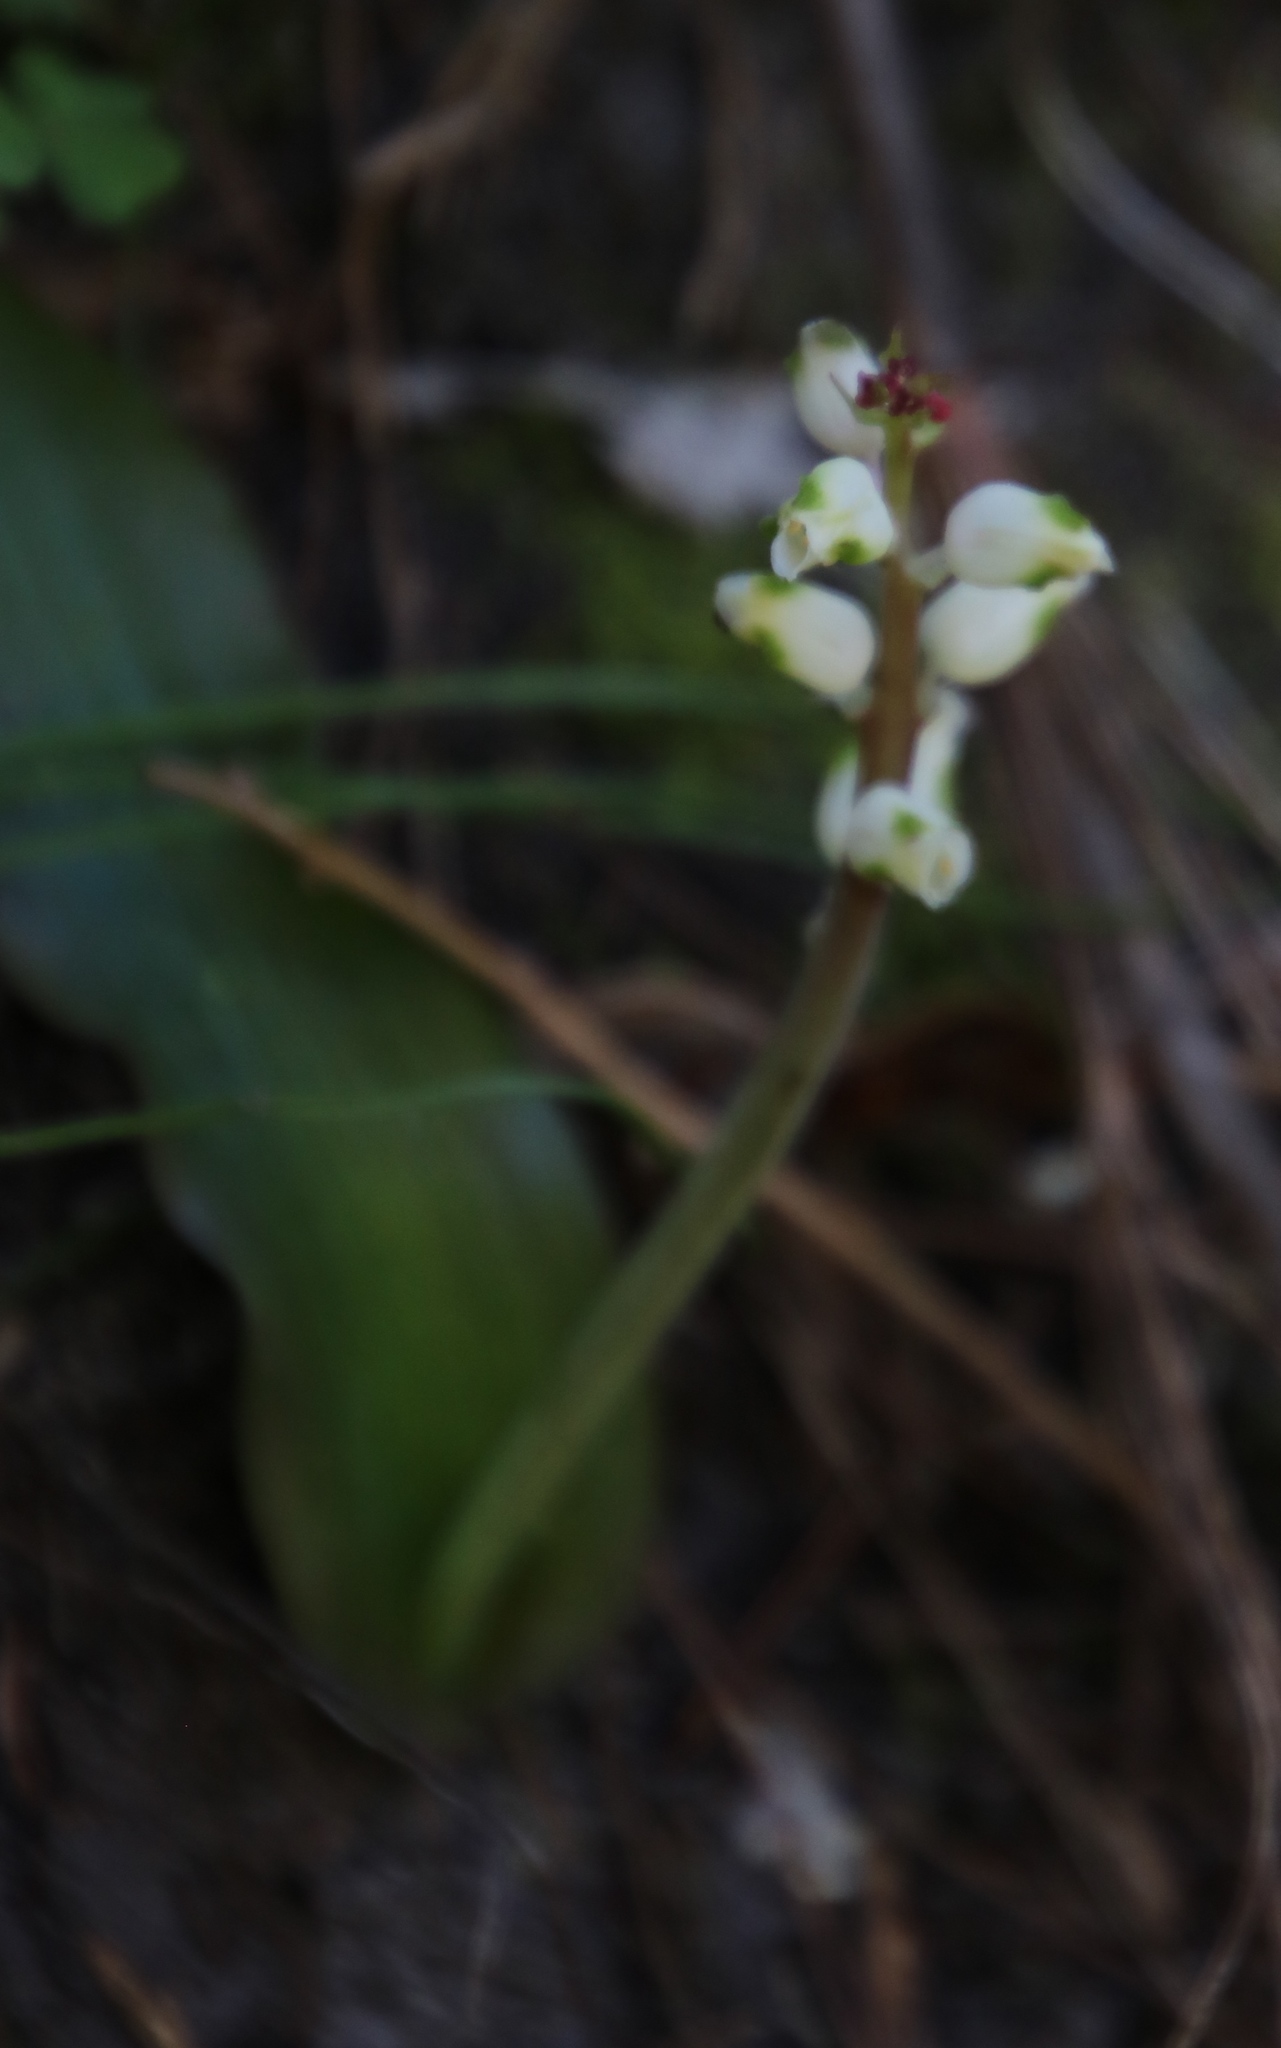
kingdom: Plantae
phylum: Tracheophyta
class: Liliopsida
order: Asparagales
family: Asparagaceae
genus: Lachenalia
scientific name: Lachenalia peersii
